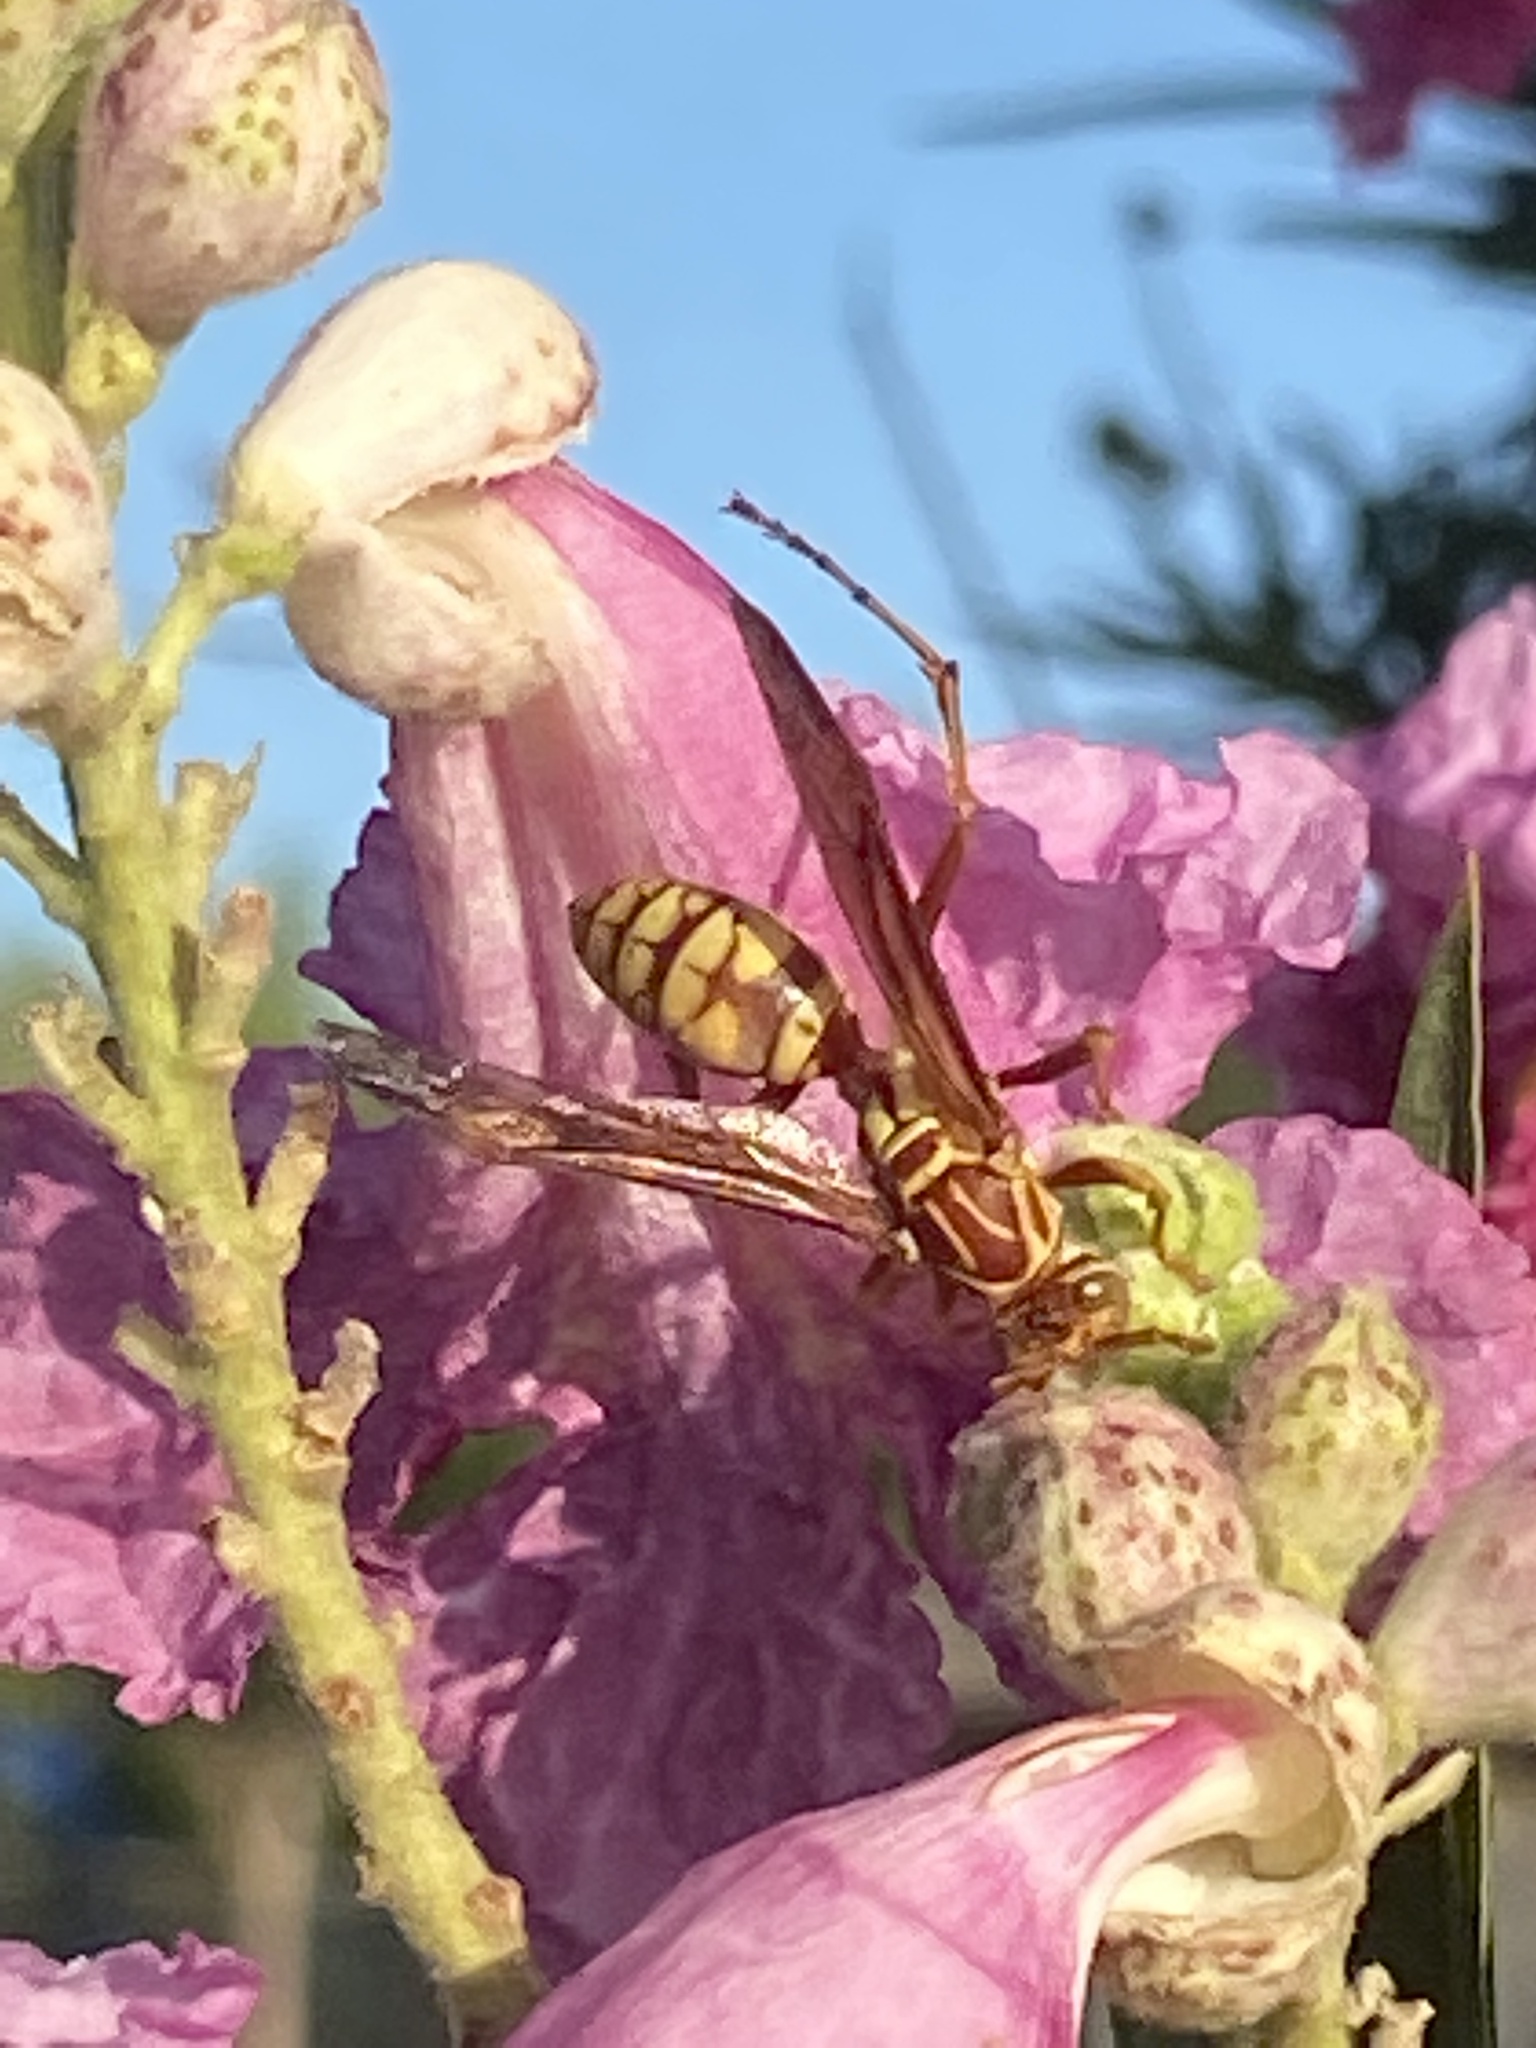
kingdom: Animalia
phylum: Arthropoda
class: Insecta
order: Hymenoptera
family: Eumenidae
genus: Polistes
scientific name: Polistes apachus
